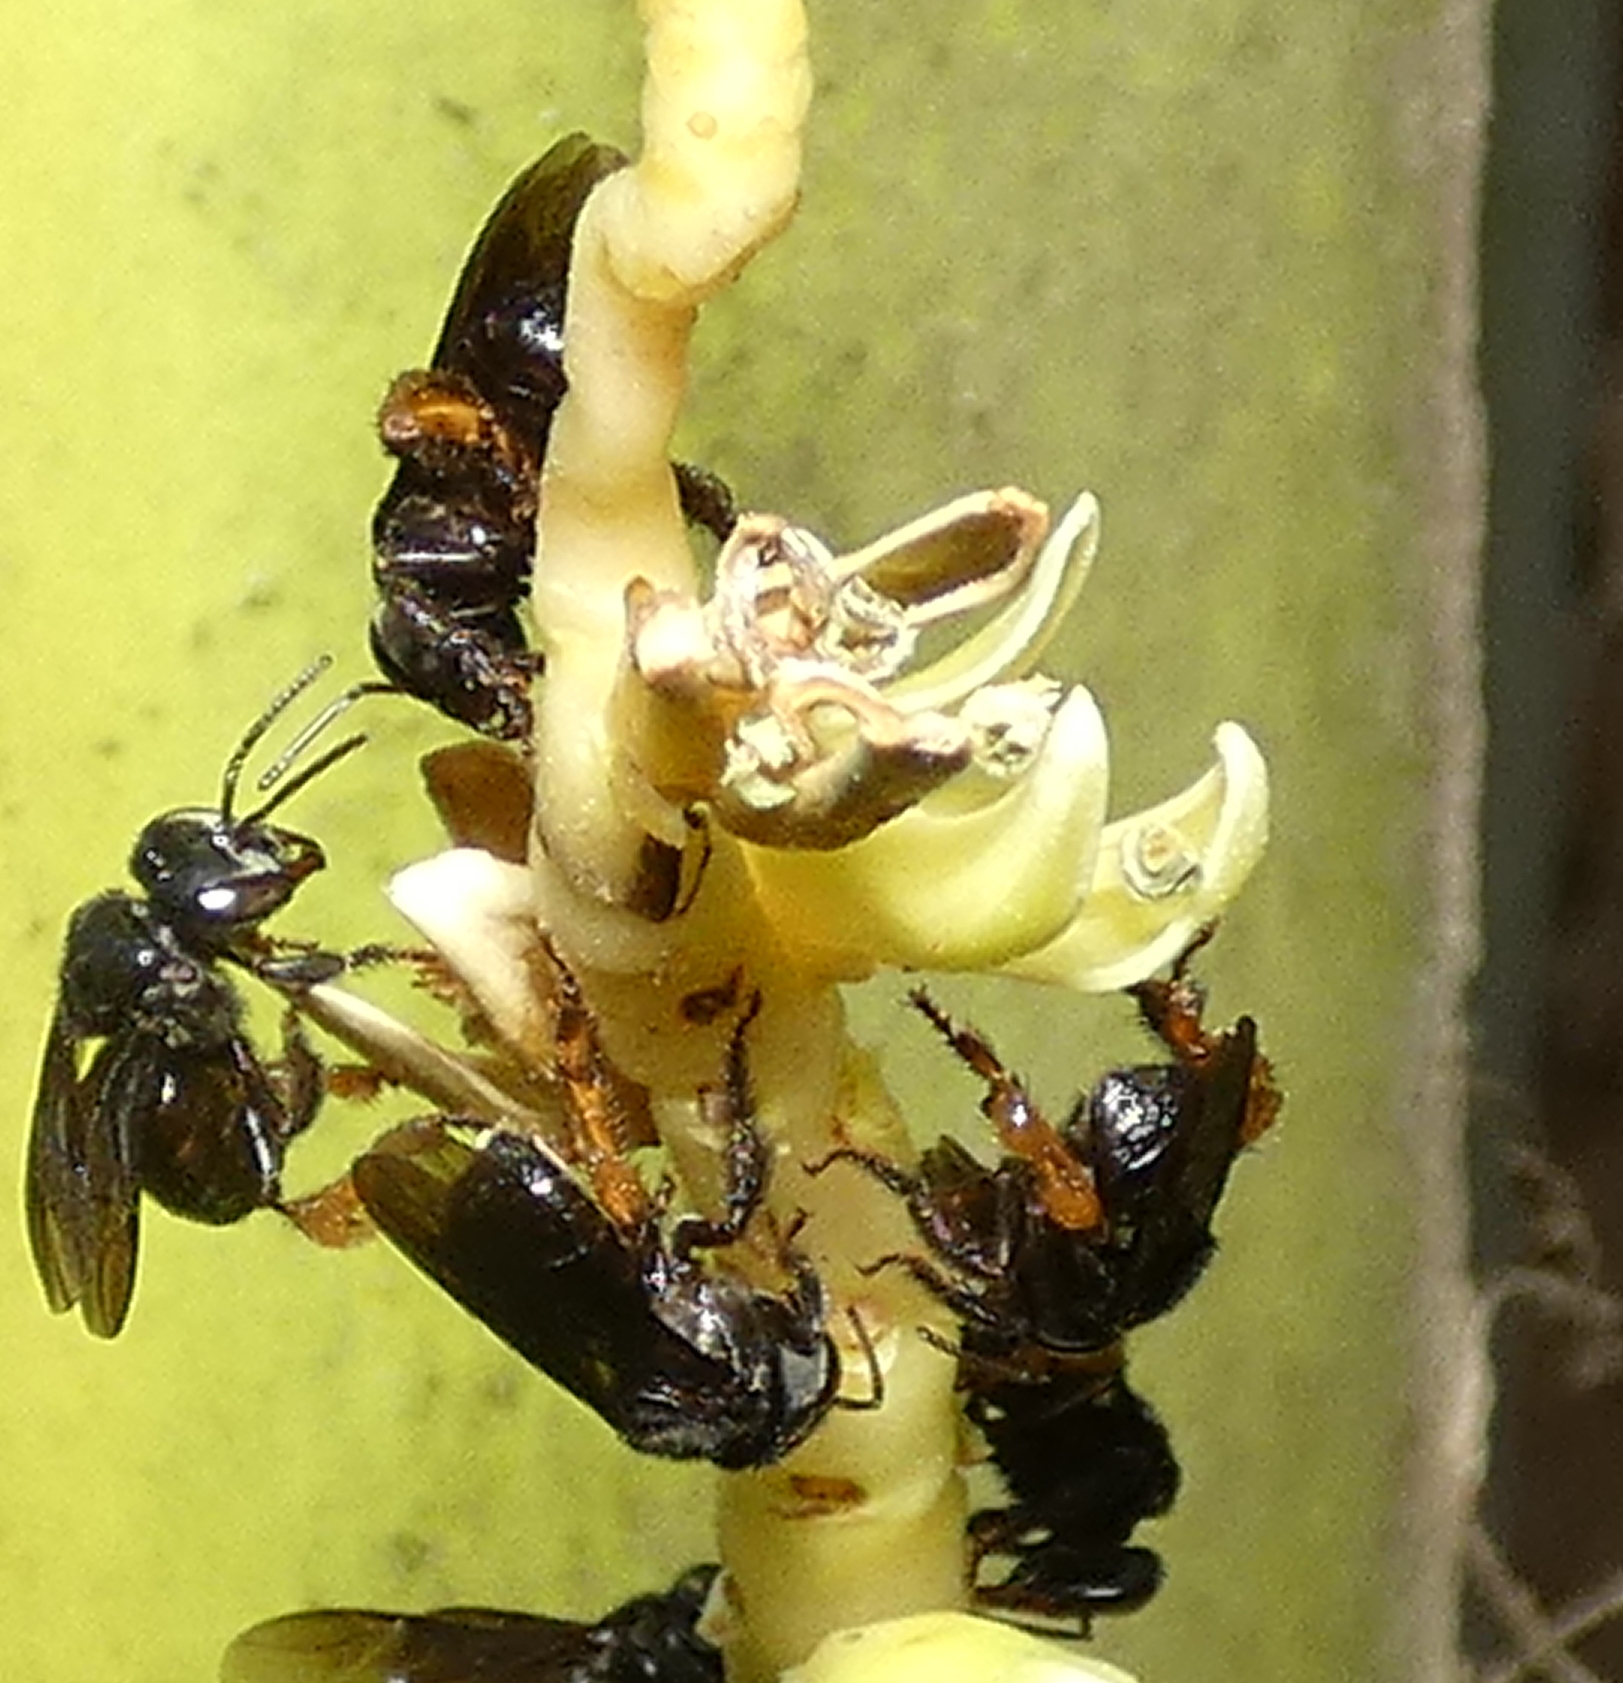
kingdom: Animalia
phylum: Arthropoda
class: Insecta
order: Hymenoptera
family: Apidae
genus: Trigona
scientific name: Trigona spinipes
